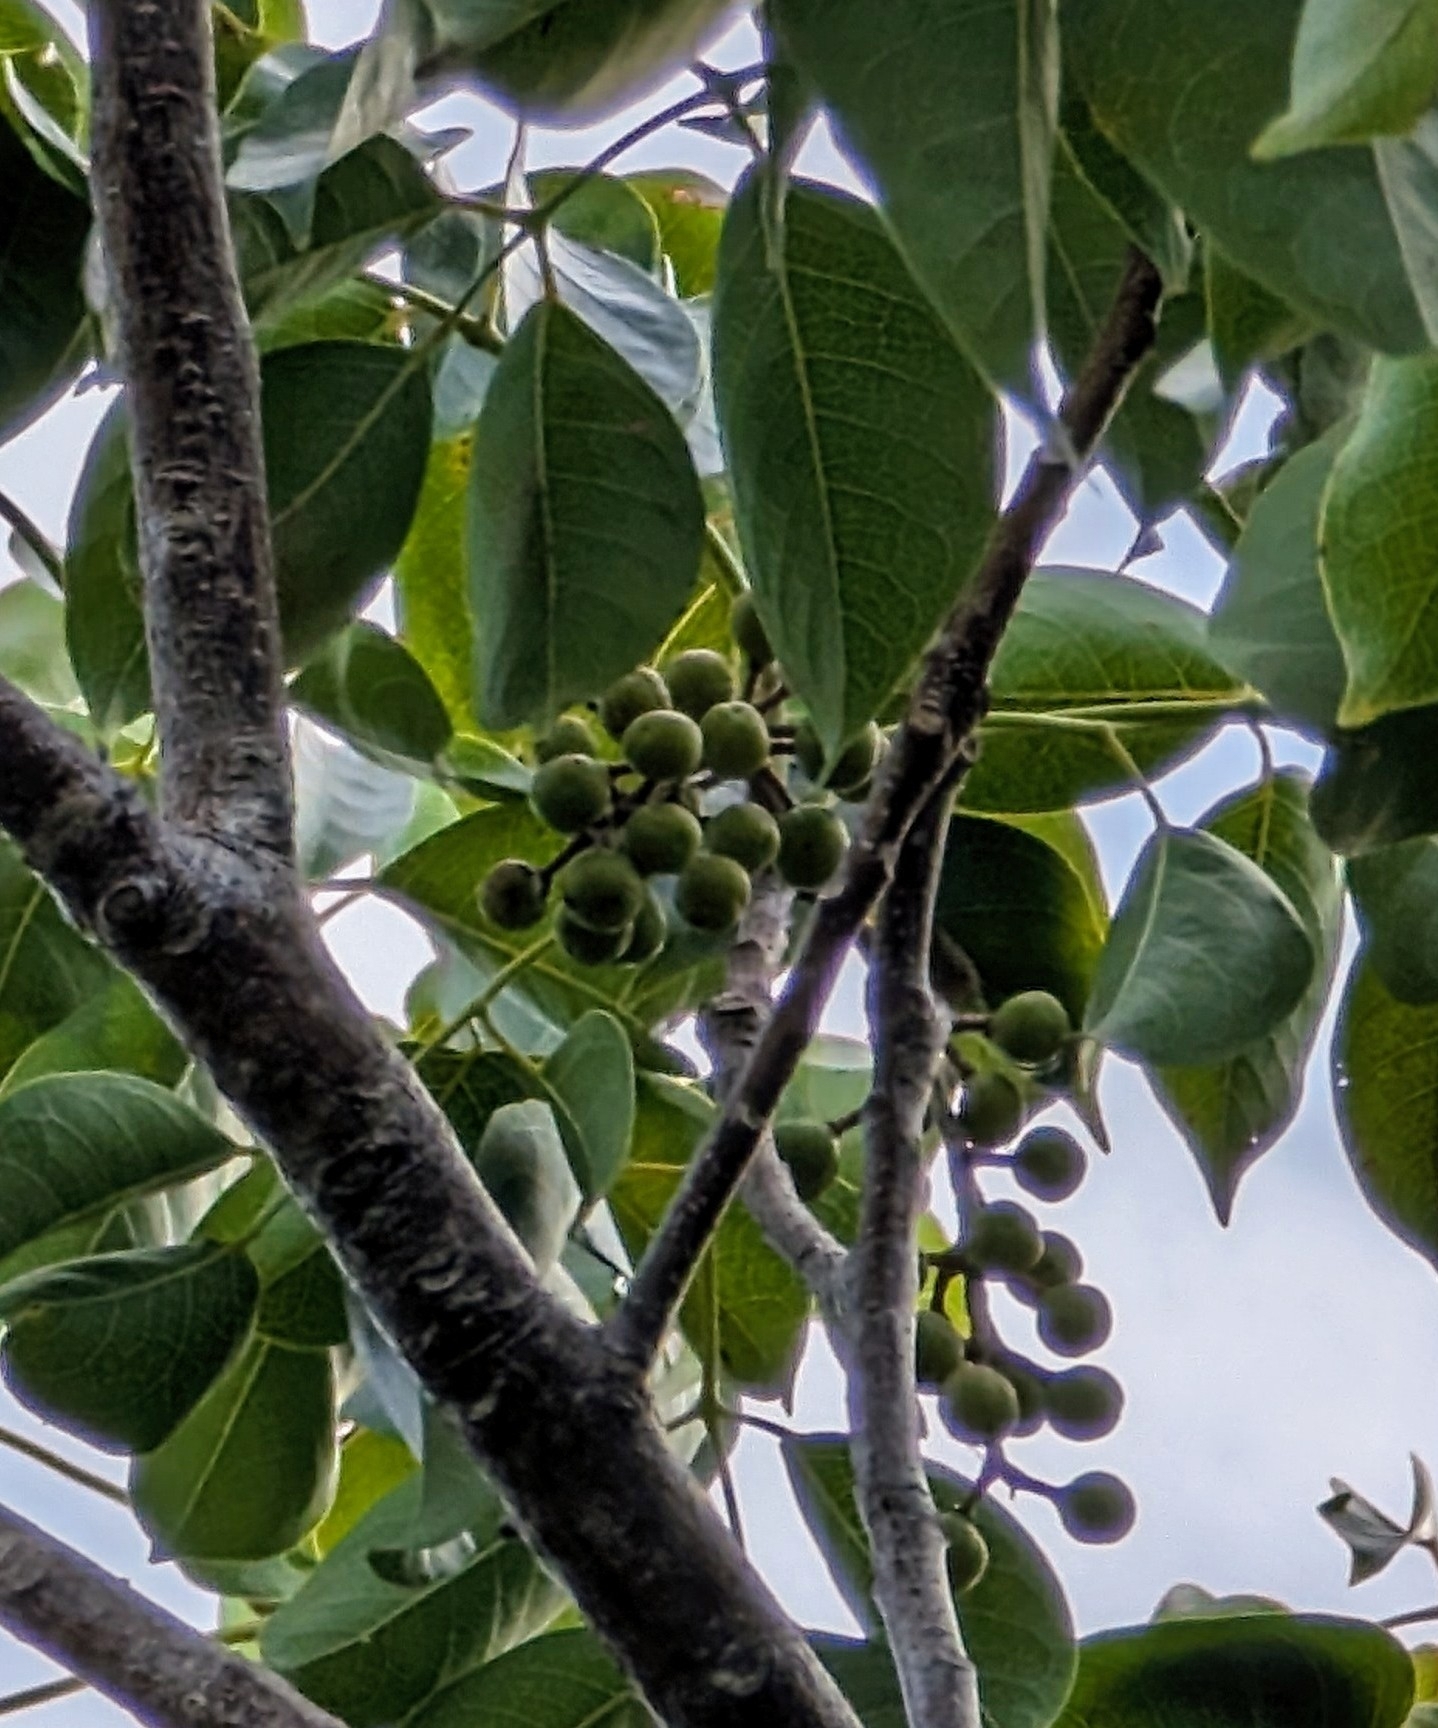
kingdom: Plantae
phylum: Tracheophyta
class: Magnoliopsida
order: Sapindales
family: Burseraceae
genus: Bursera
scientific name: Bursera simaruba
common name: Turpentine tree
